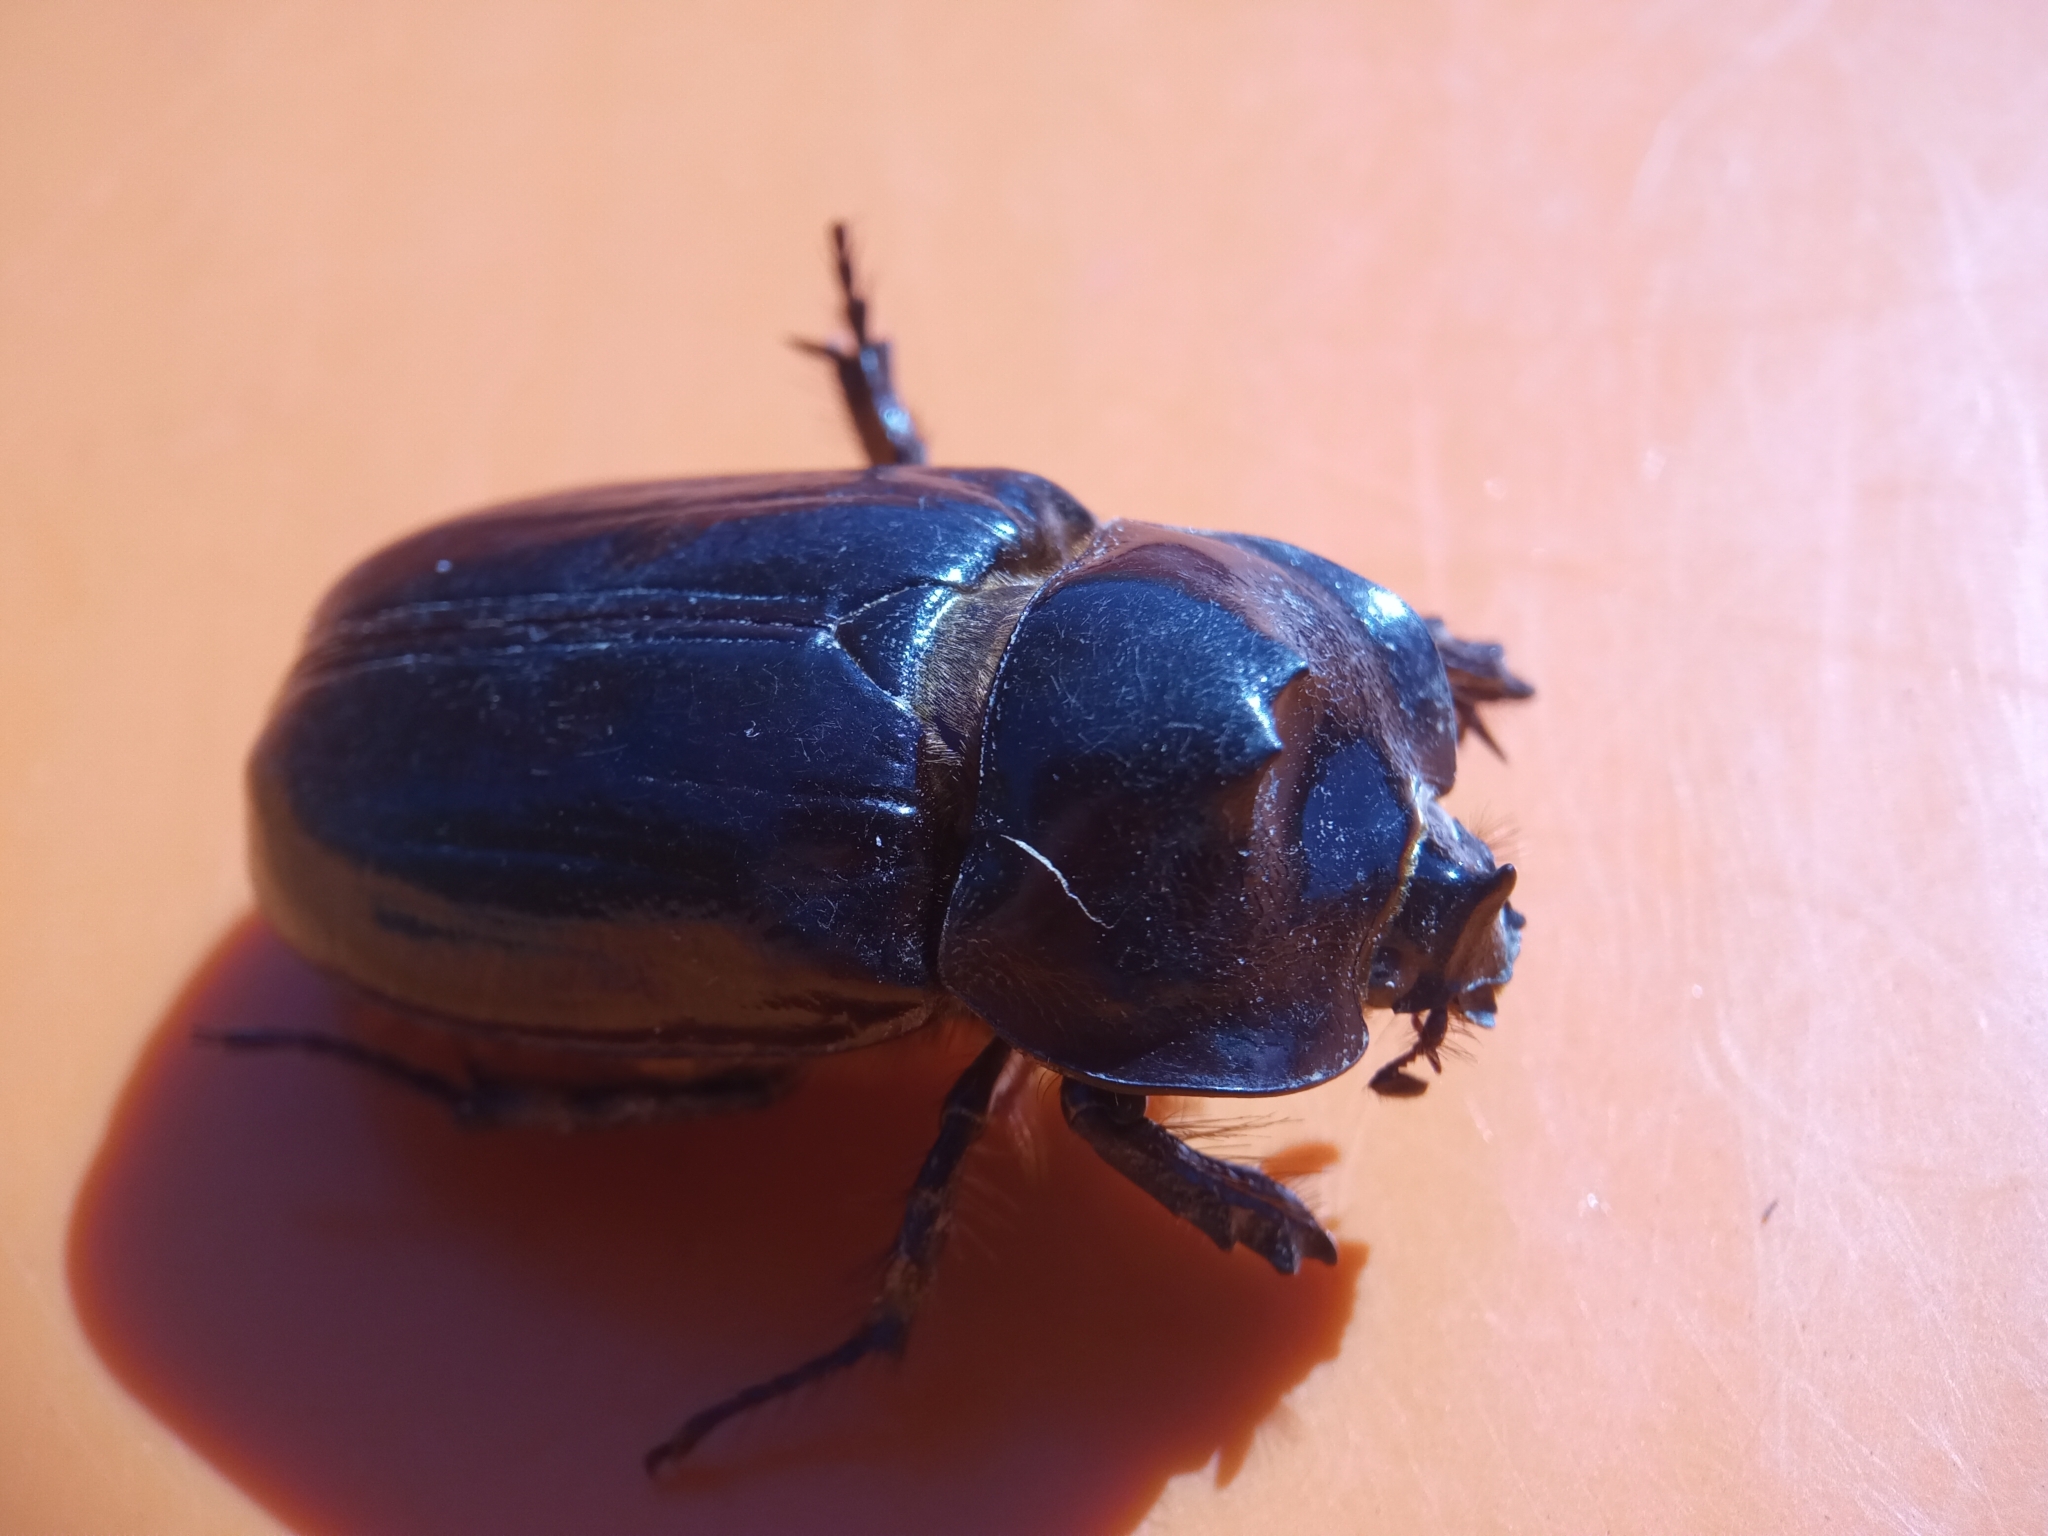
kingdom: Animalia
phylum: Arthropoda
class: Insecta
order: Coleoptera
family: Scarabaeidae
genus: Heterogomphus
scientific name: Heterogomphus dilaticollis
